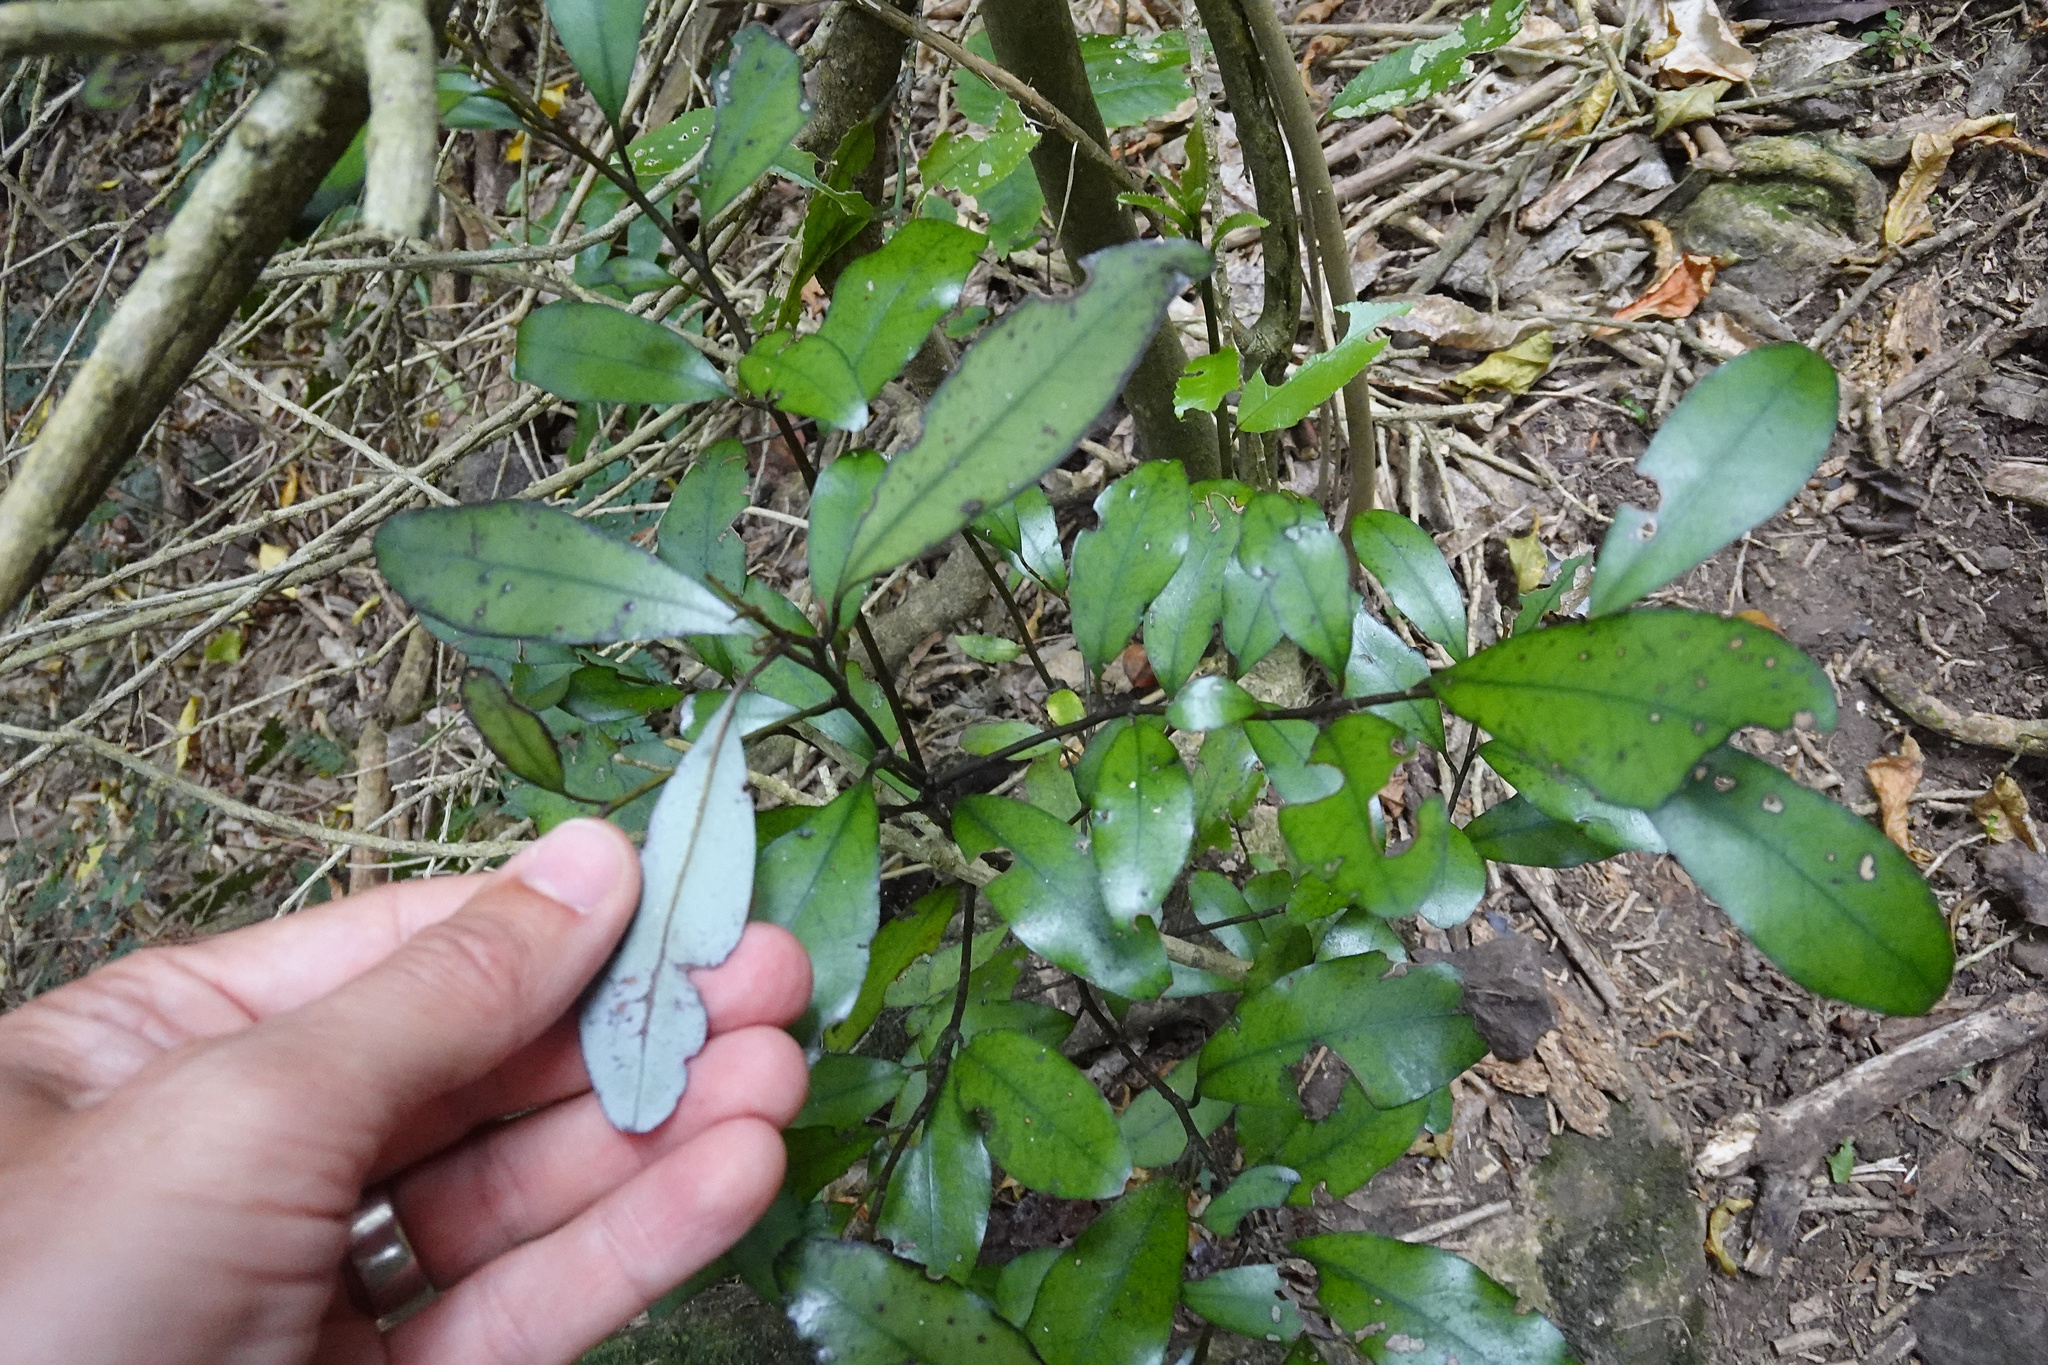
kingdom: Plantae
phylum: Tracheophyta
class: Magnoliopsida
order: Canellales
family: Winteraceae
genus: Pseudowintera
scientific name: Pseudowintera colorata
